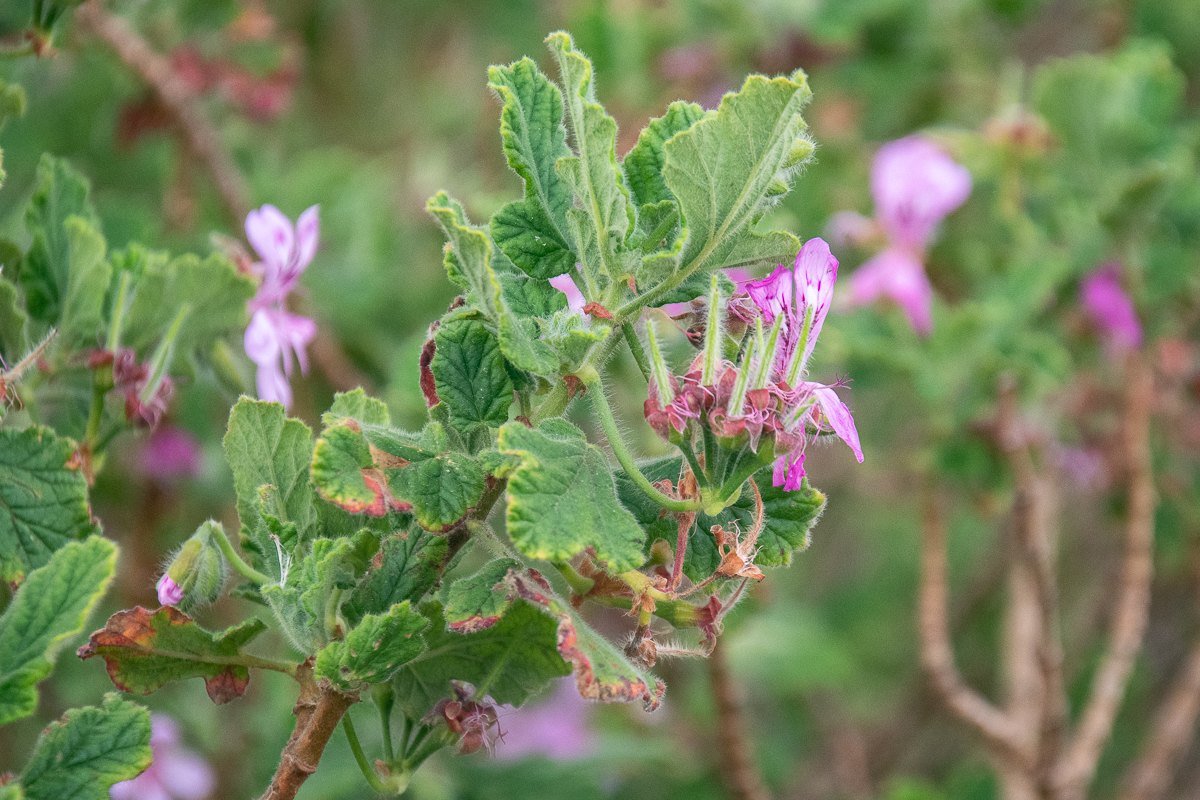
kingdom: Plantae
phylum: Tracheophyta
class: Magnoliopsida
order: Geraniales
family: Geraniaceae
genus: Pelargonium
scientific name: Pelargonium panduriforme
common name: Oakleaf garden geranium
